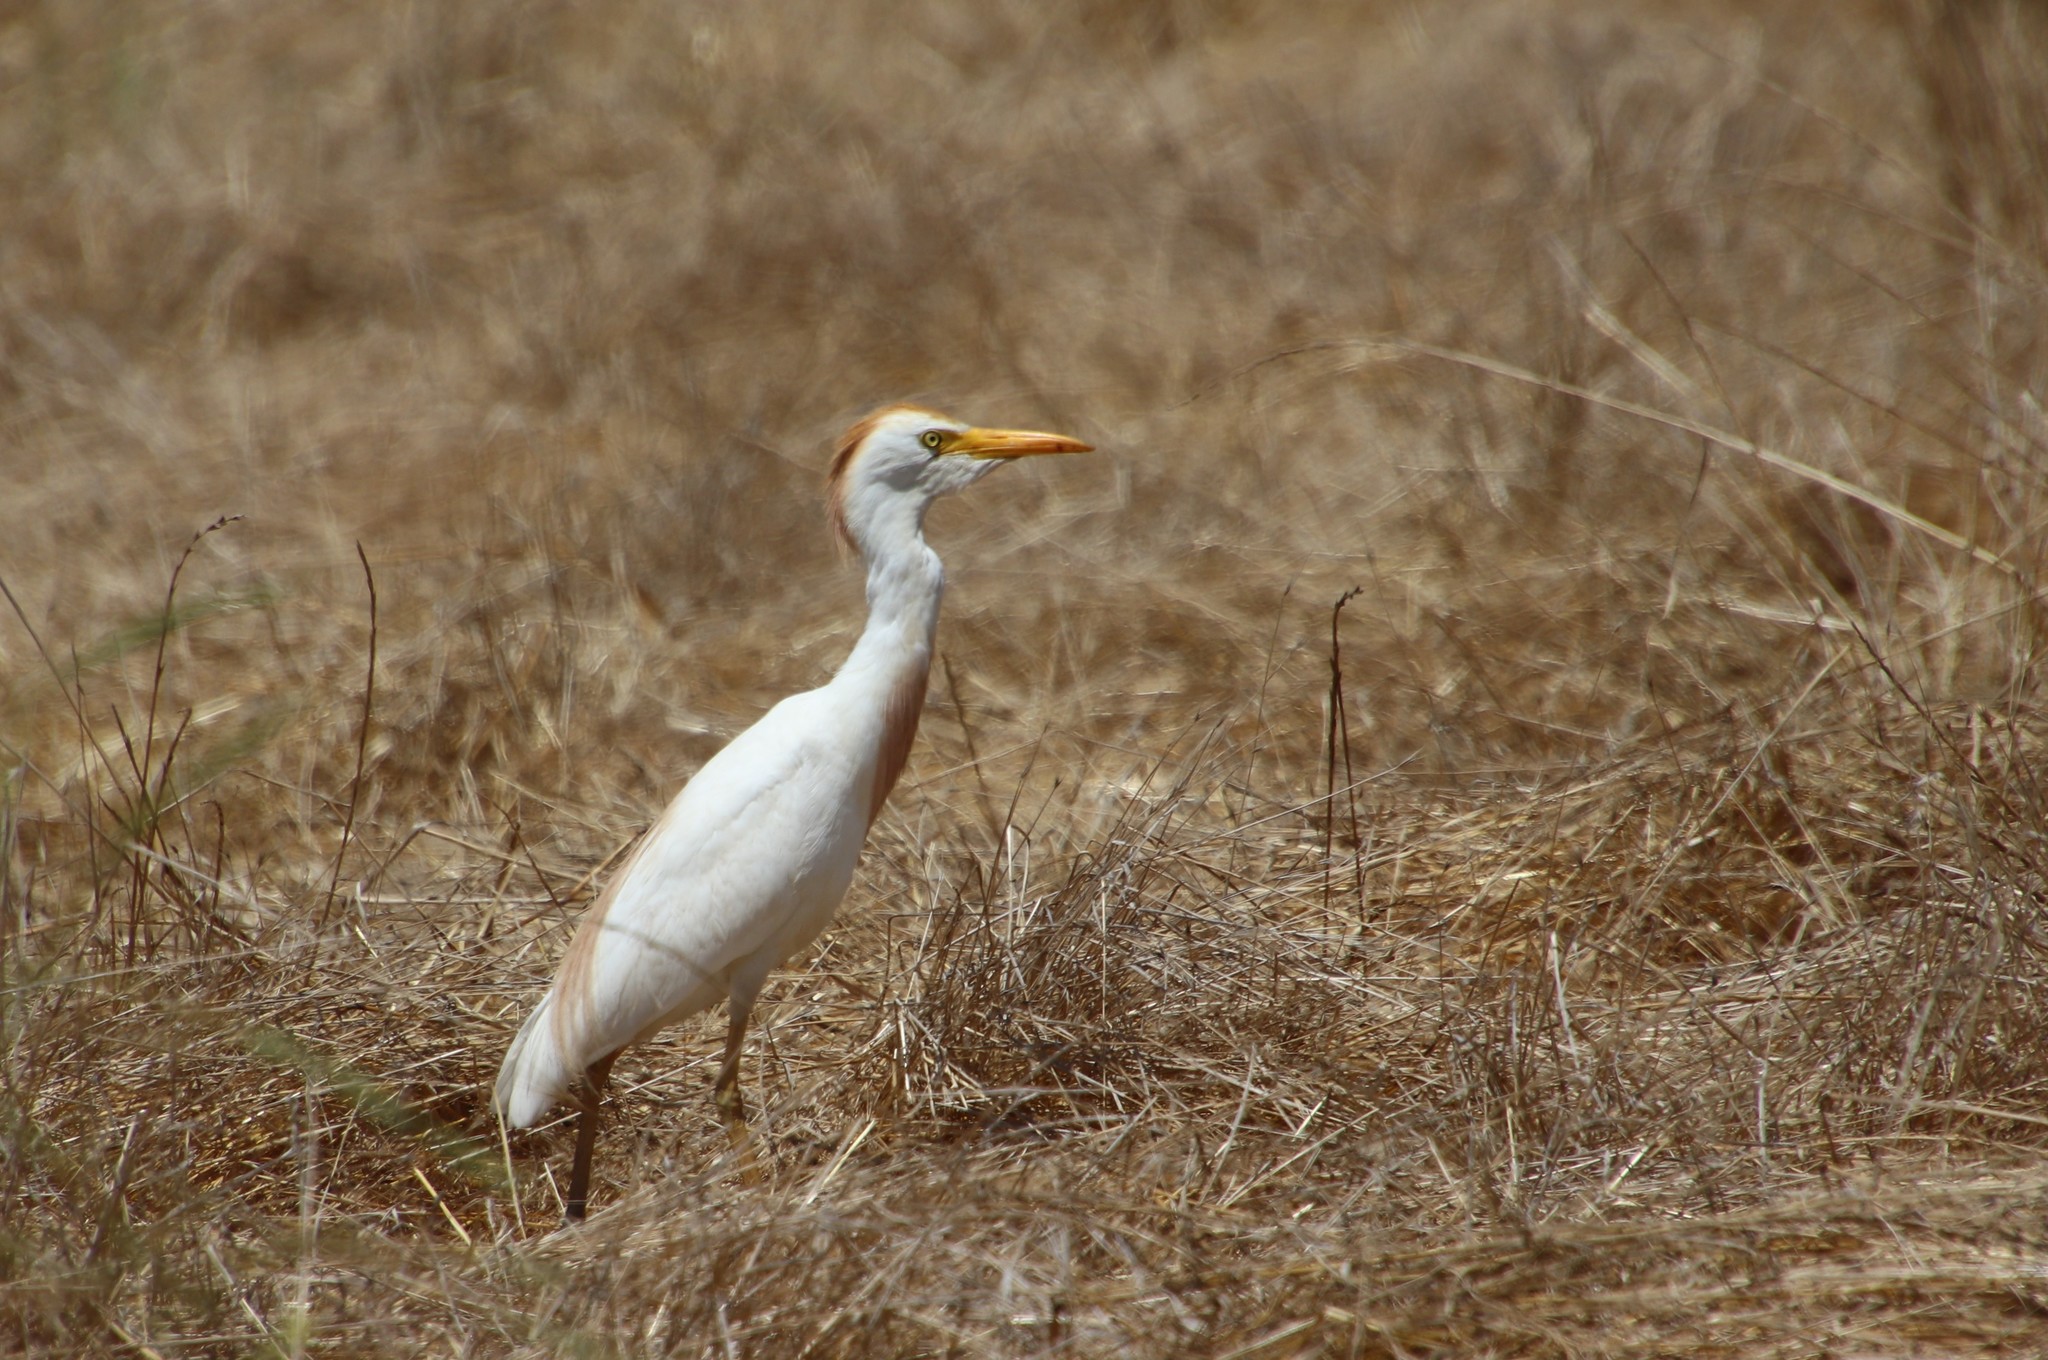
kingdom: Animalia
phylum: Chordata
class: Aves
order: Pelecaniformes
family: Ardeidae
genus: Bubulcus
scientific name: Bubulcus ibis
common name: Cattle egret
